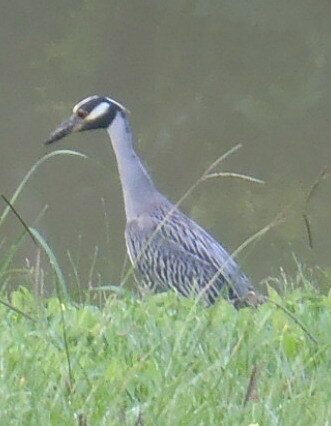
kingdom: Animalia
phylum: Chordata
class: Aves
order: Pelecaniformes
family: Ardeidae
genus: Nyctanassa
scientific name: Nyctanassa violacea
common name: Yellow-crowned night heron
